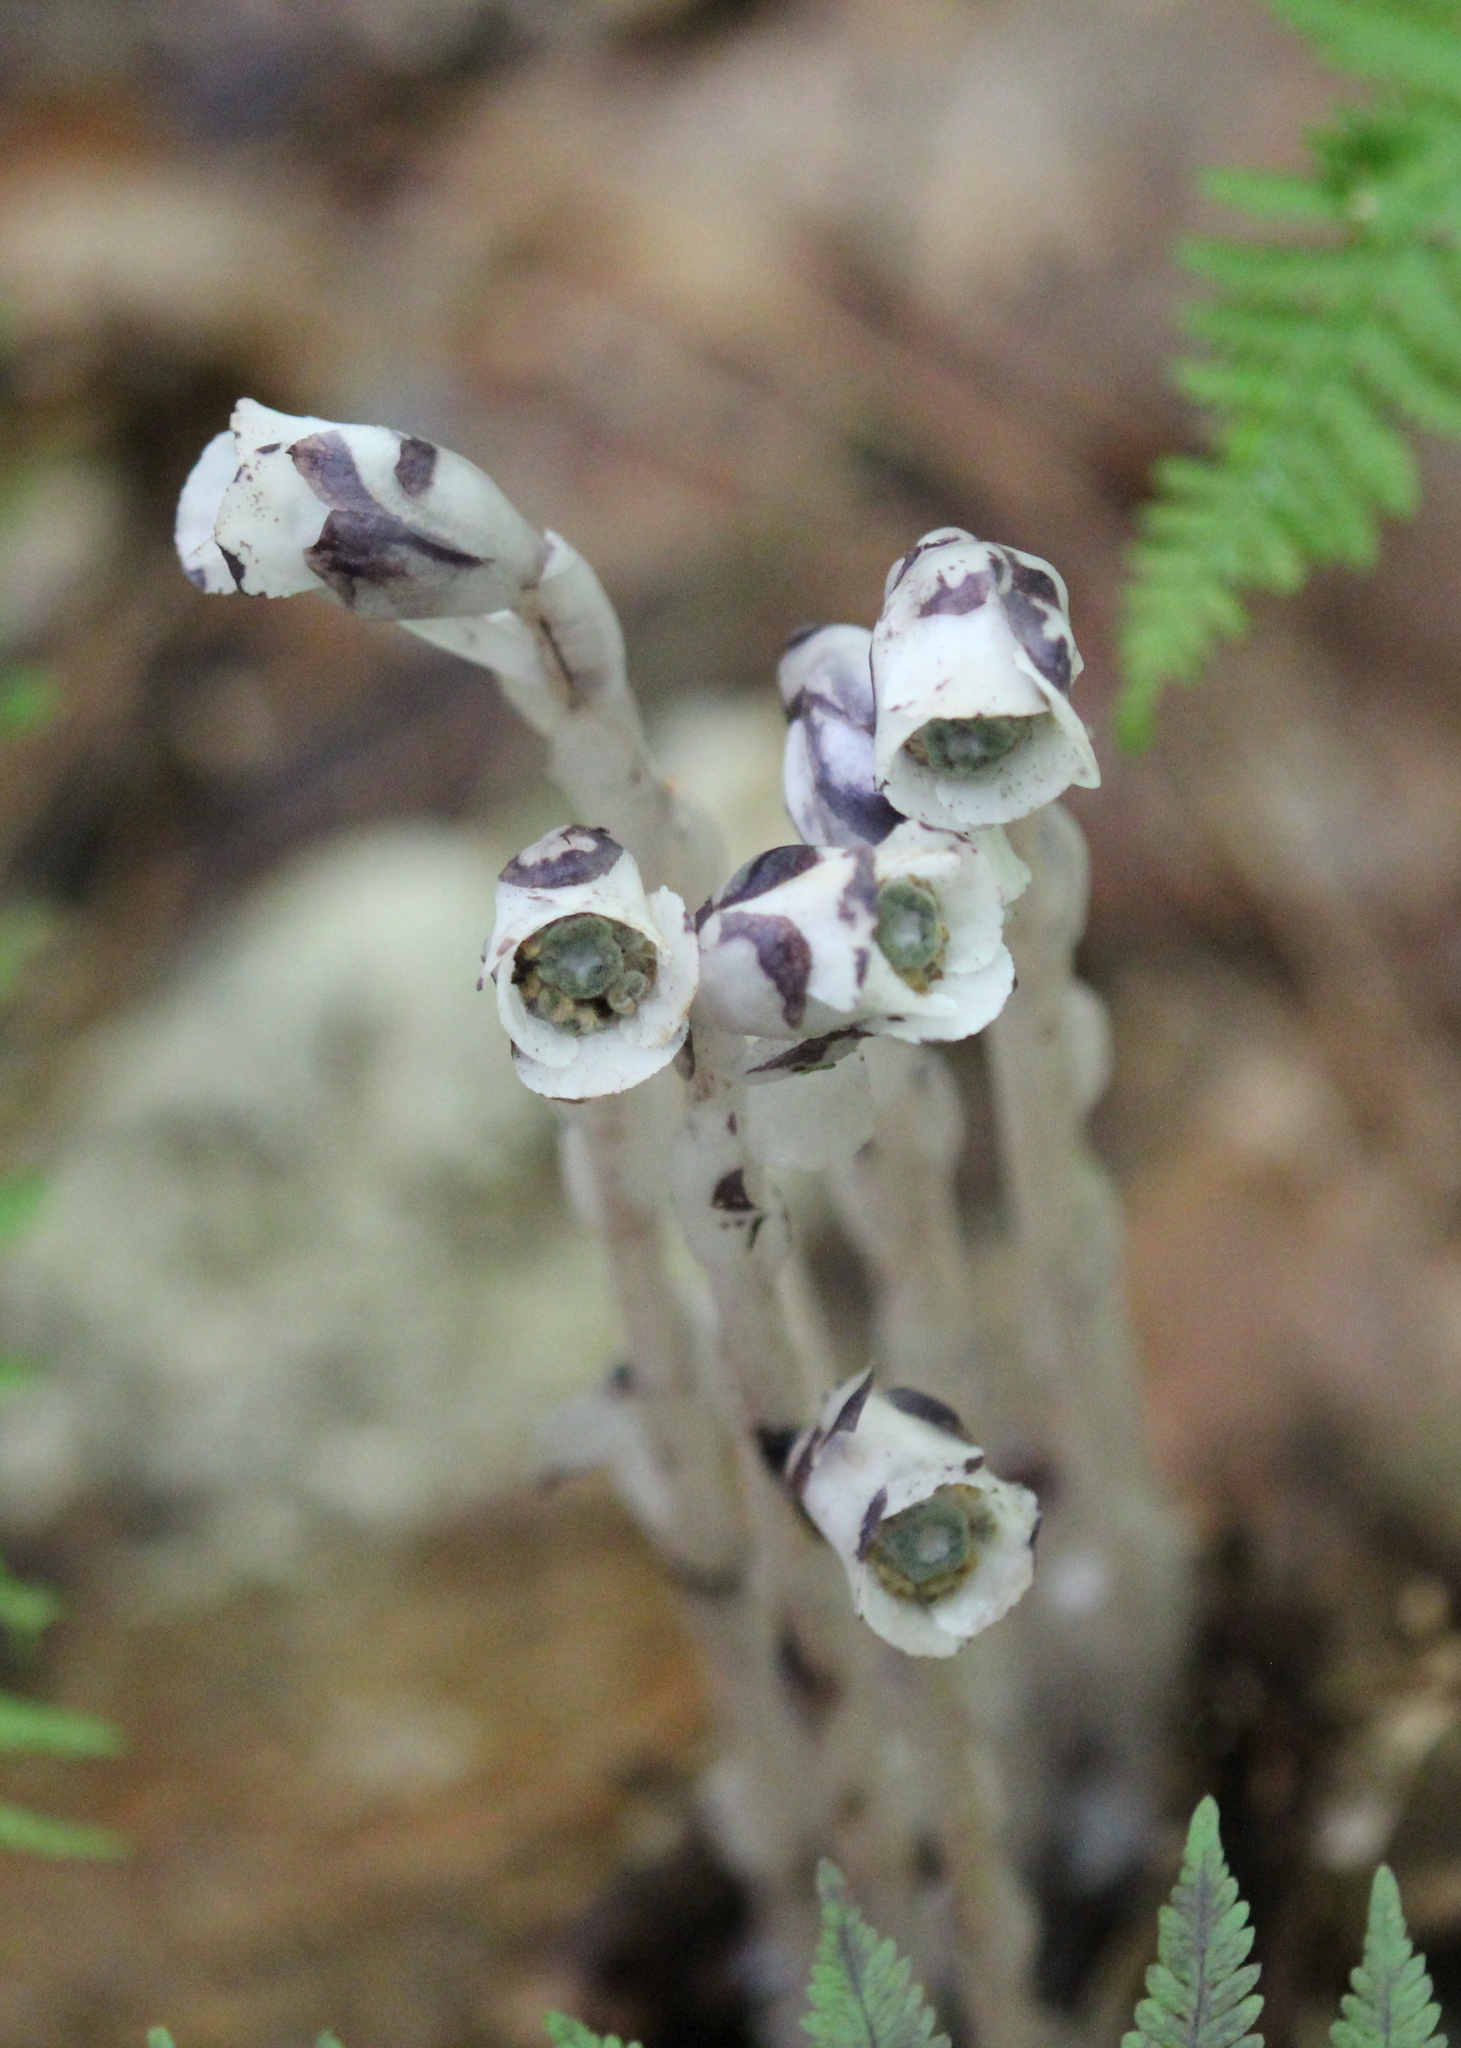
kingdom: Plantae
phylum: Tracheophyta
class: Magnoliopsida
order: Ericales
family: Ericaceae
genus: Monotropa
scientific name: Monotropa uniflora
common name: Convulsion root
